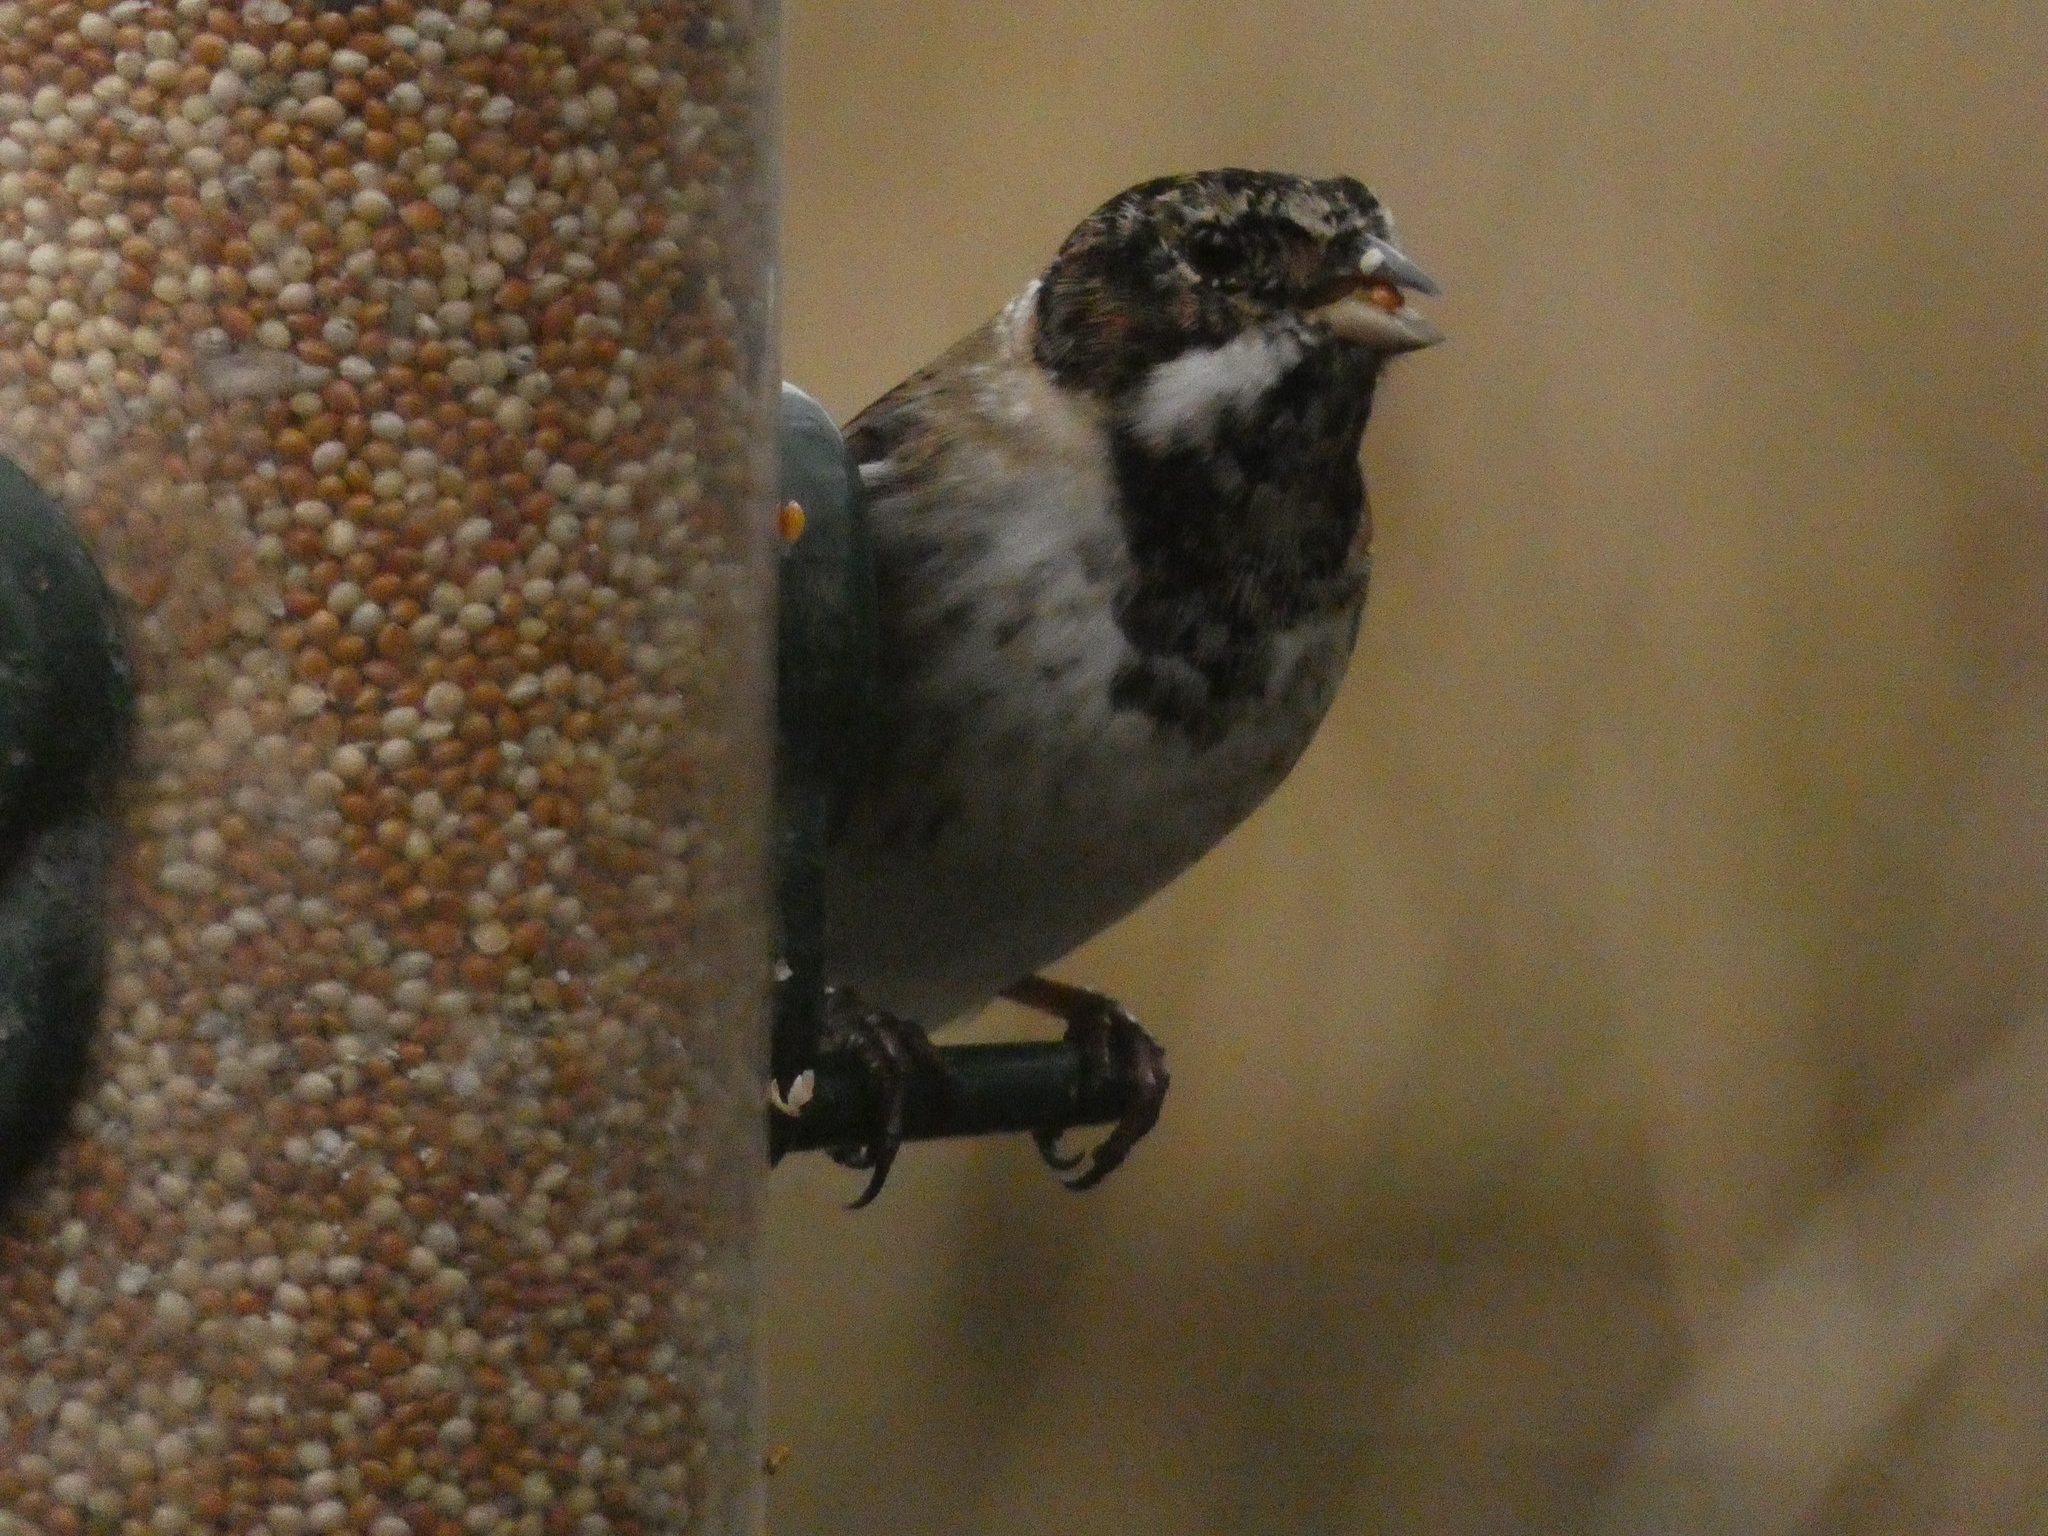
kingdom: Animalia
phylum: Chordata
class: Aves
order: Passeriformes
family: Emberizidae
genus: Emberiza
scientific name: Emberiza schoeniclus
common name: Reed bunting
